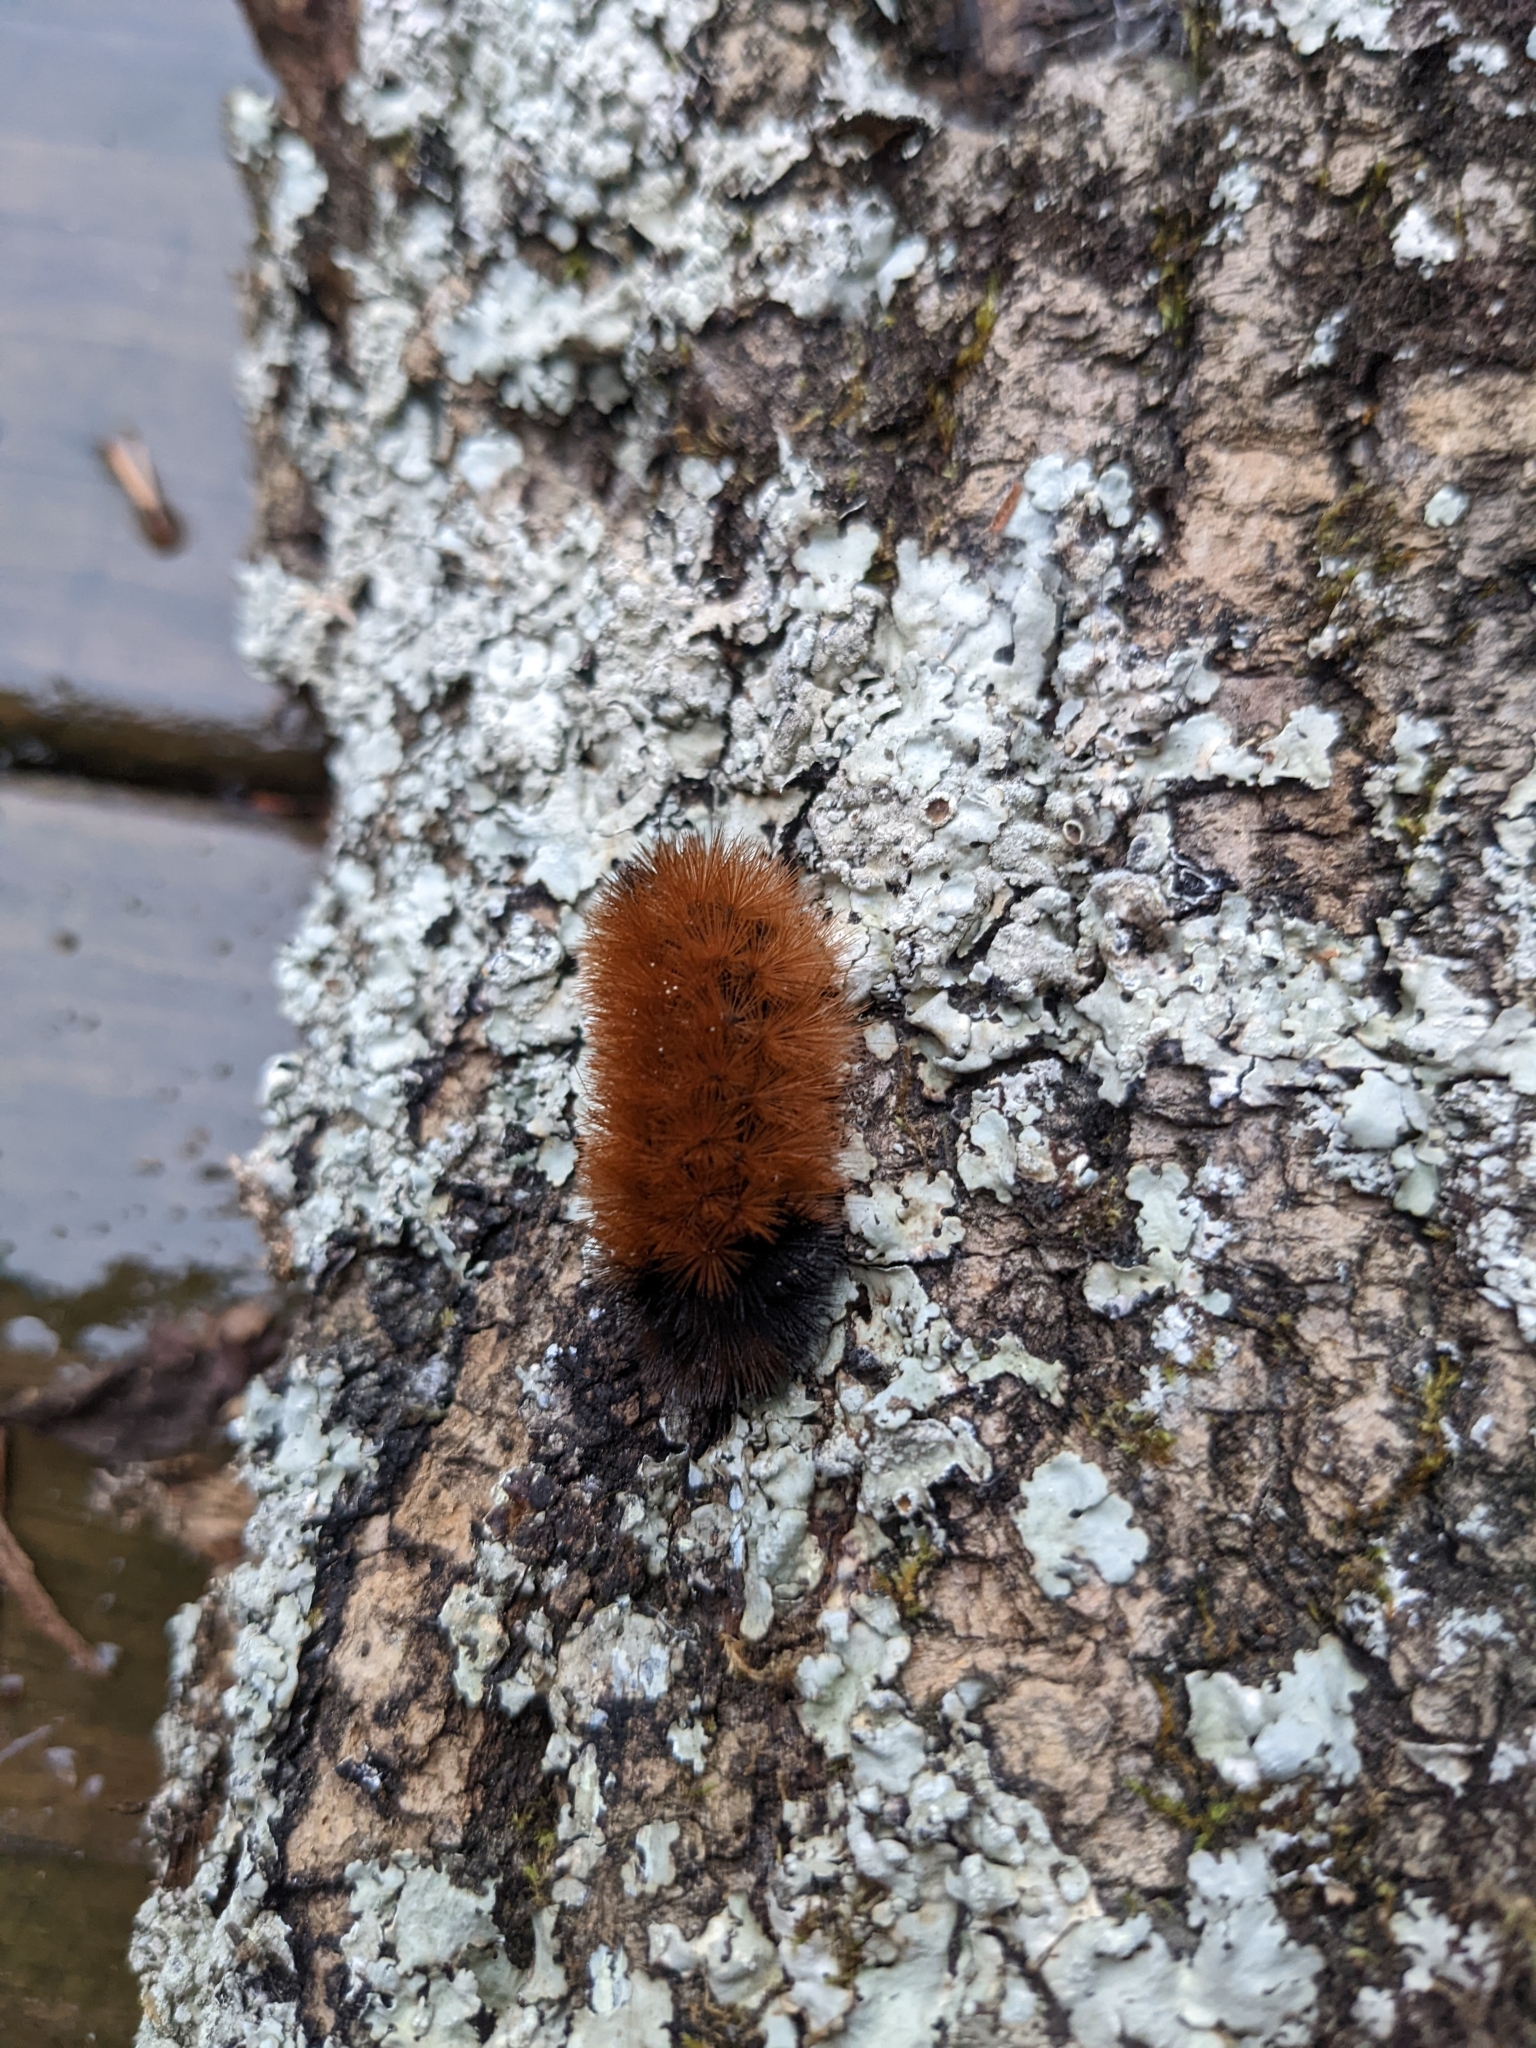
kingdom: Animalia
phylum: Arthropoda
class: Insecta
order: Lepidoptera
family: Erebidae
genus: Pyrrharctia
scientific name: Pyrrharctia isabella
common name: Isabella tiger moth
